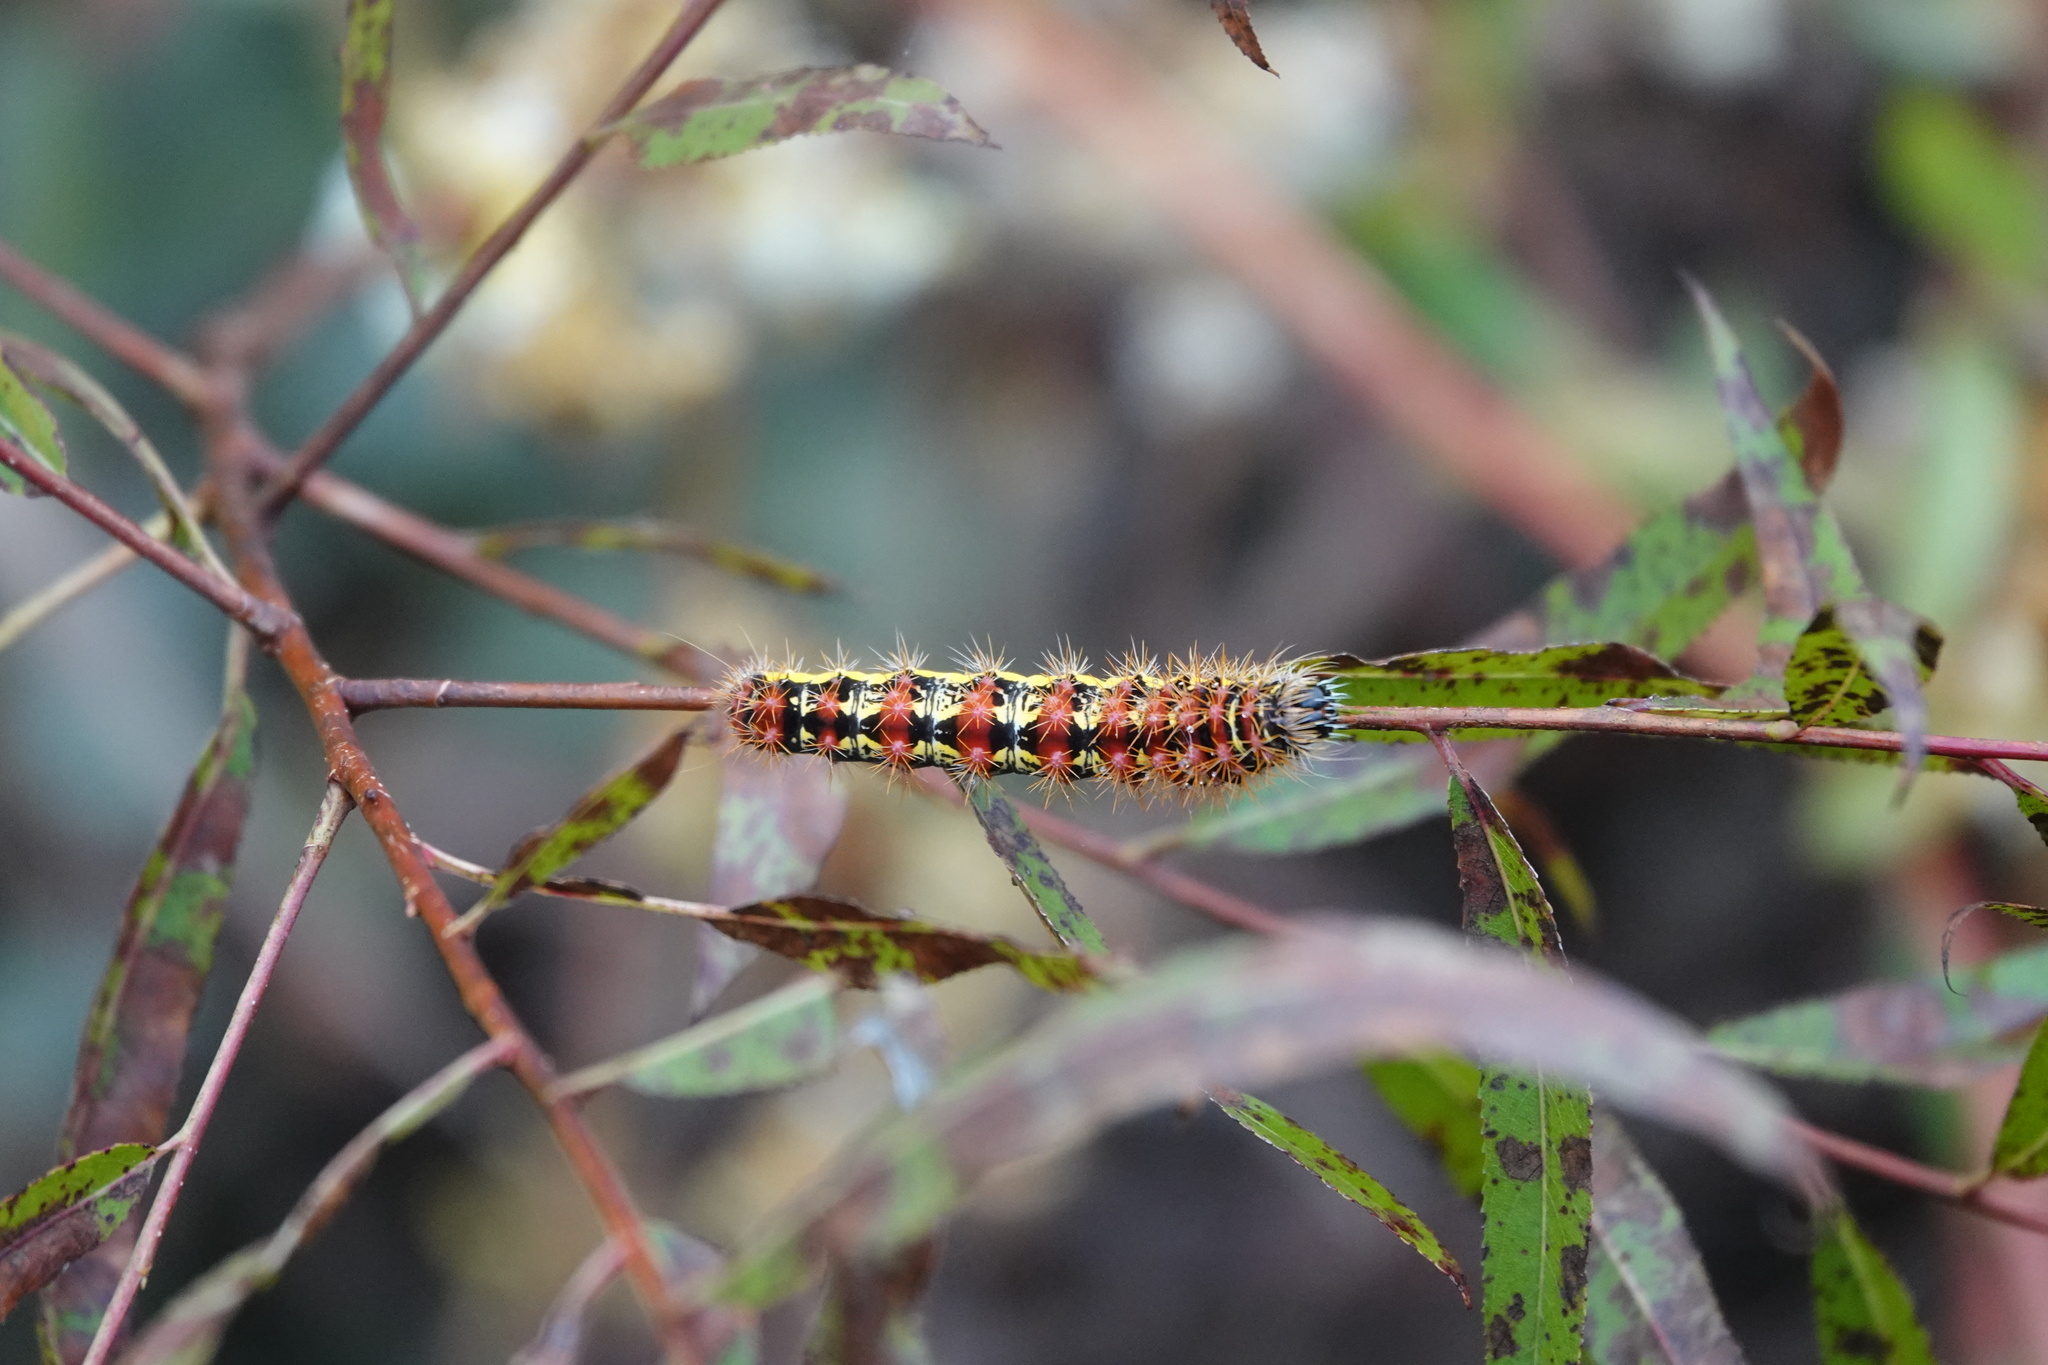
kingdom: Animalia
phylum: Arthropoda
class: Insecta
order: Lepidoptera
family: Noctuidae
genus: Acronicta
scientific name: Acronicta oblinita
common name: Smeared dagger
